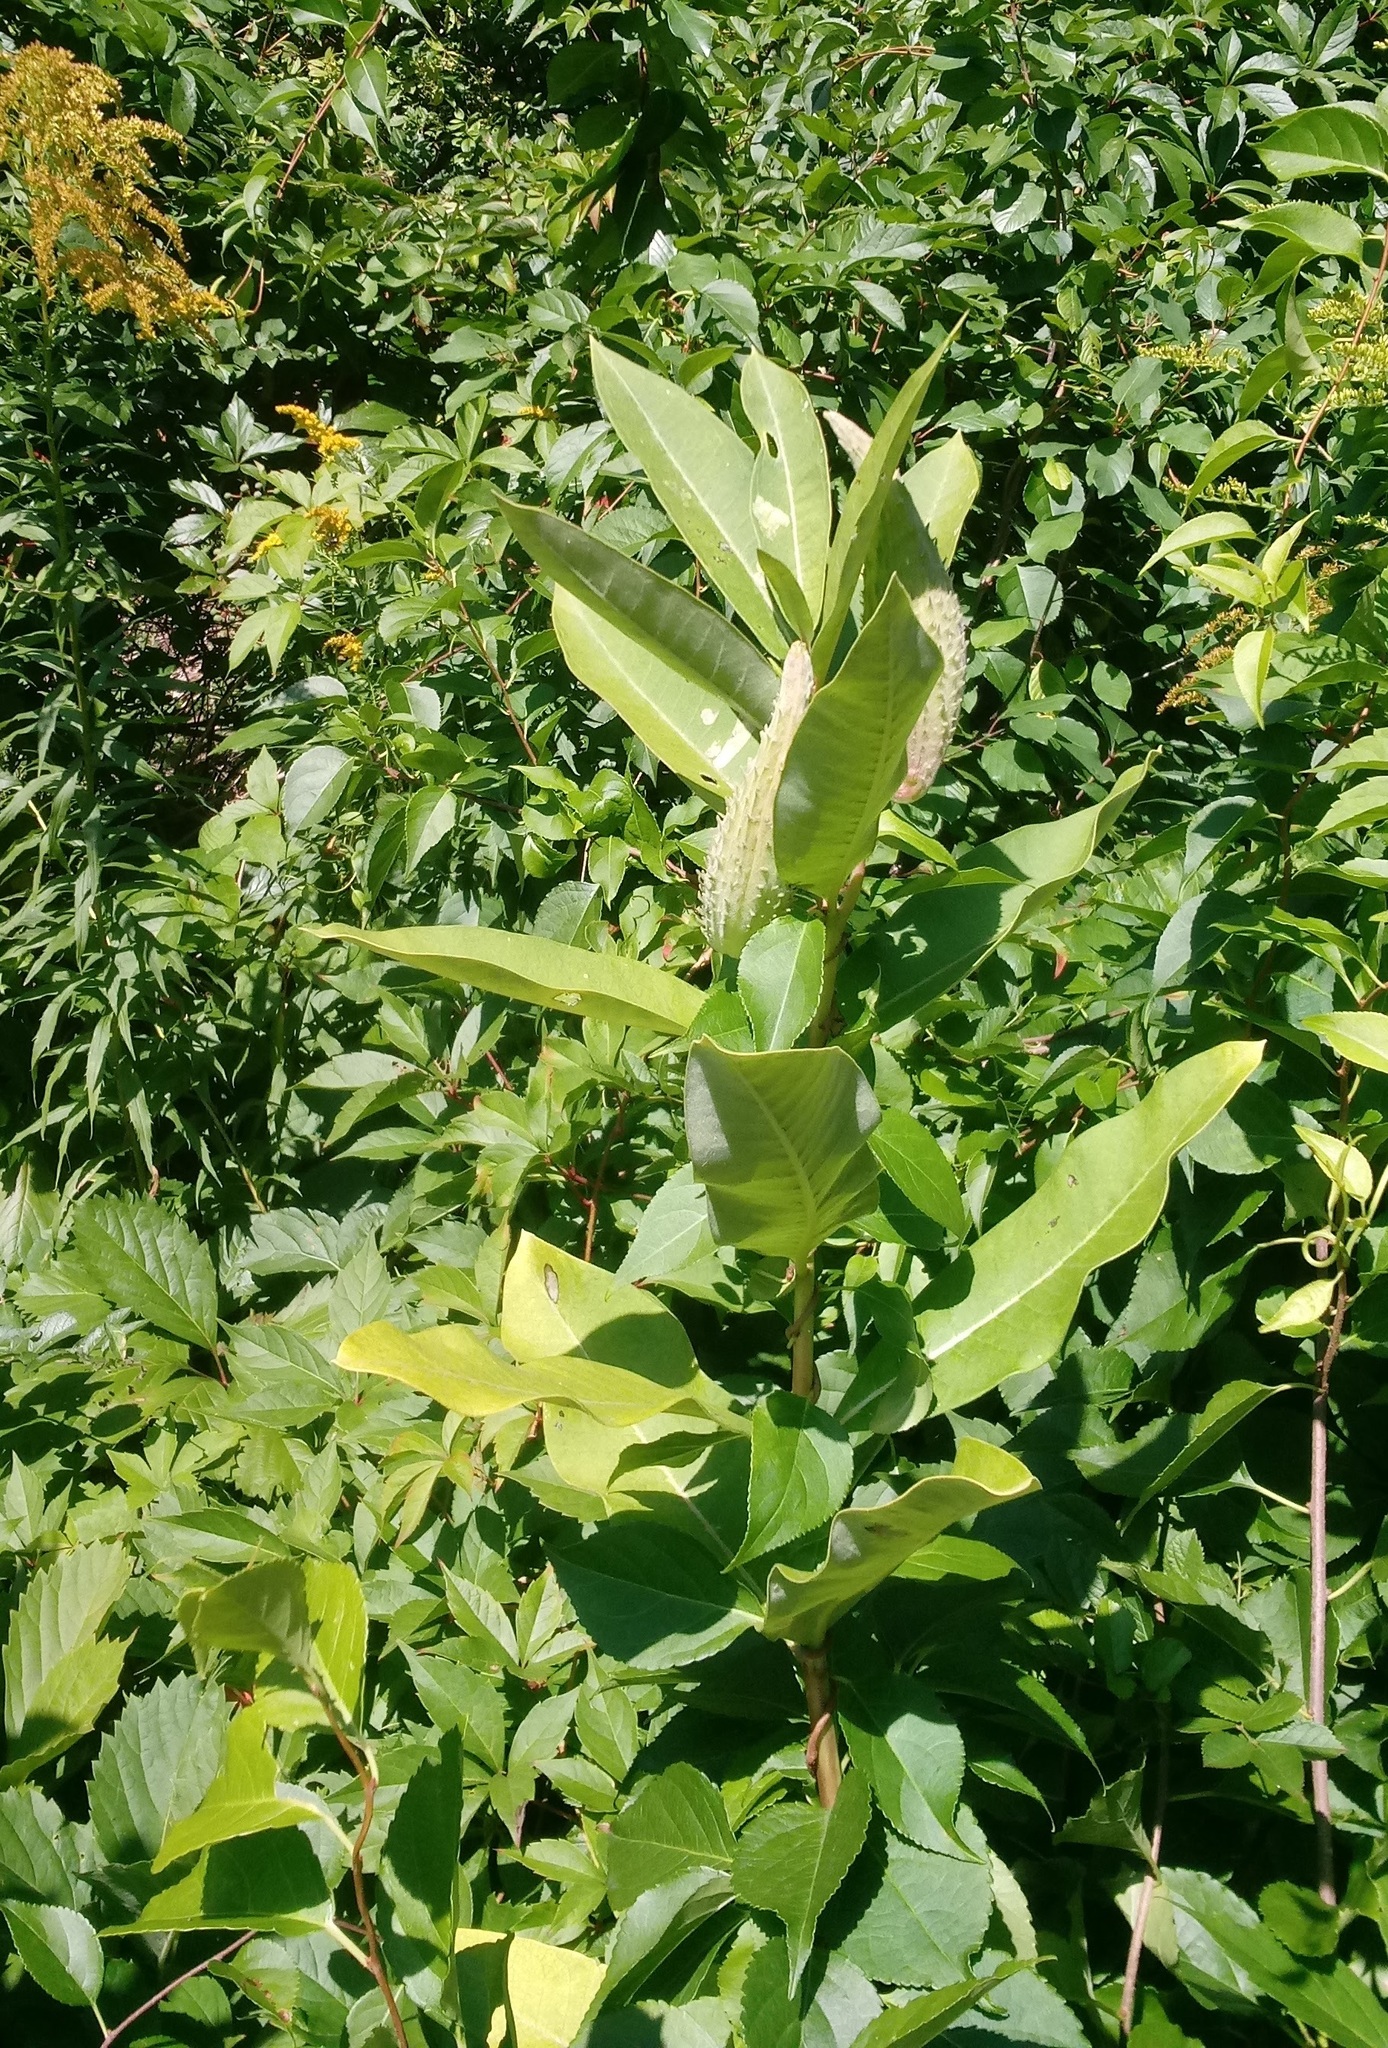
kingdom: Plantae
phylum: Tracheophyta
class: Magnoliopsida
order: Gentianales
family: Apocynaceae
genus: Asclepias
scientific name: Asclepias syriaca
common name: Common milkweed
